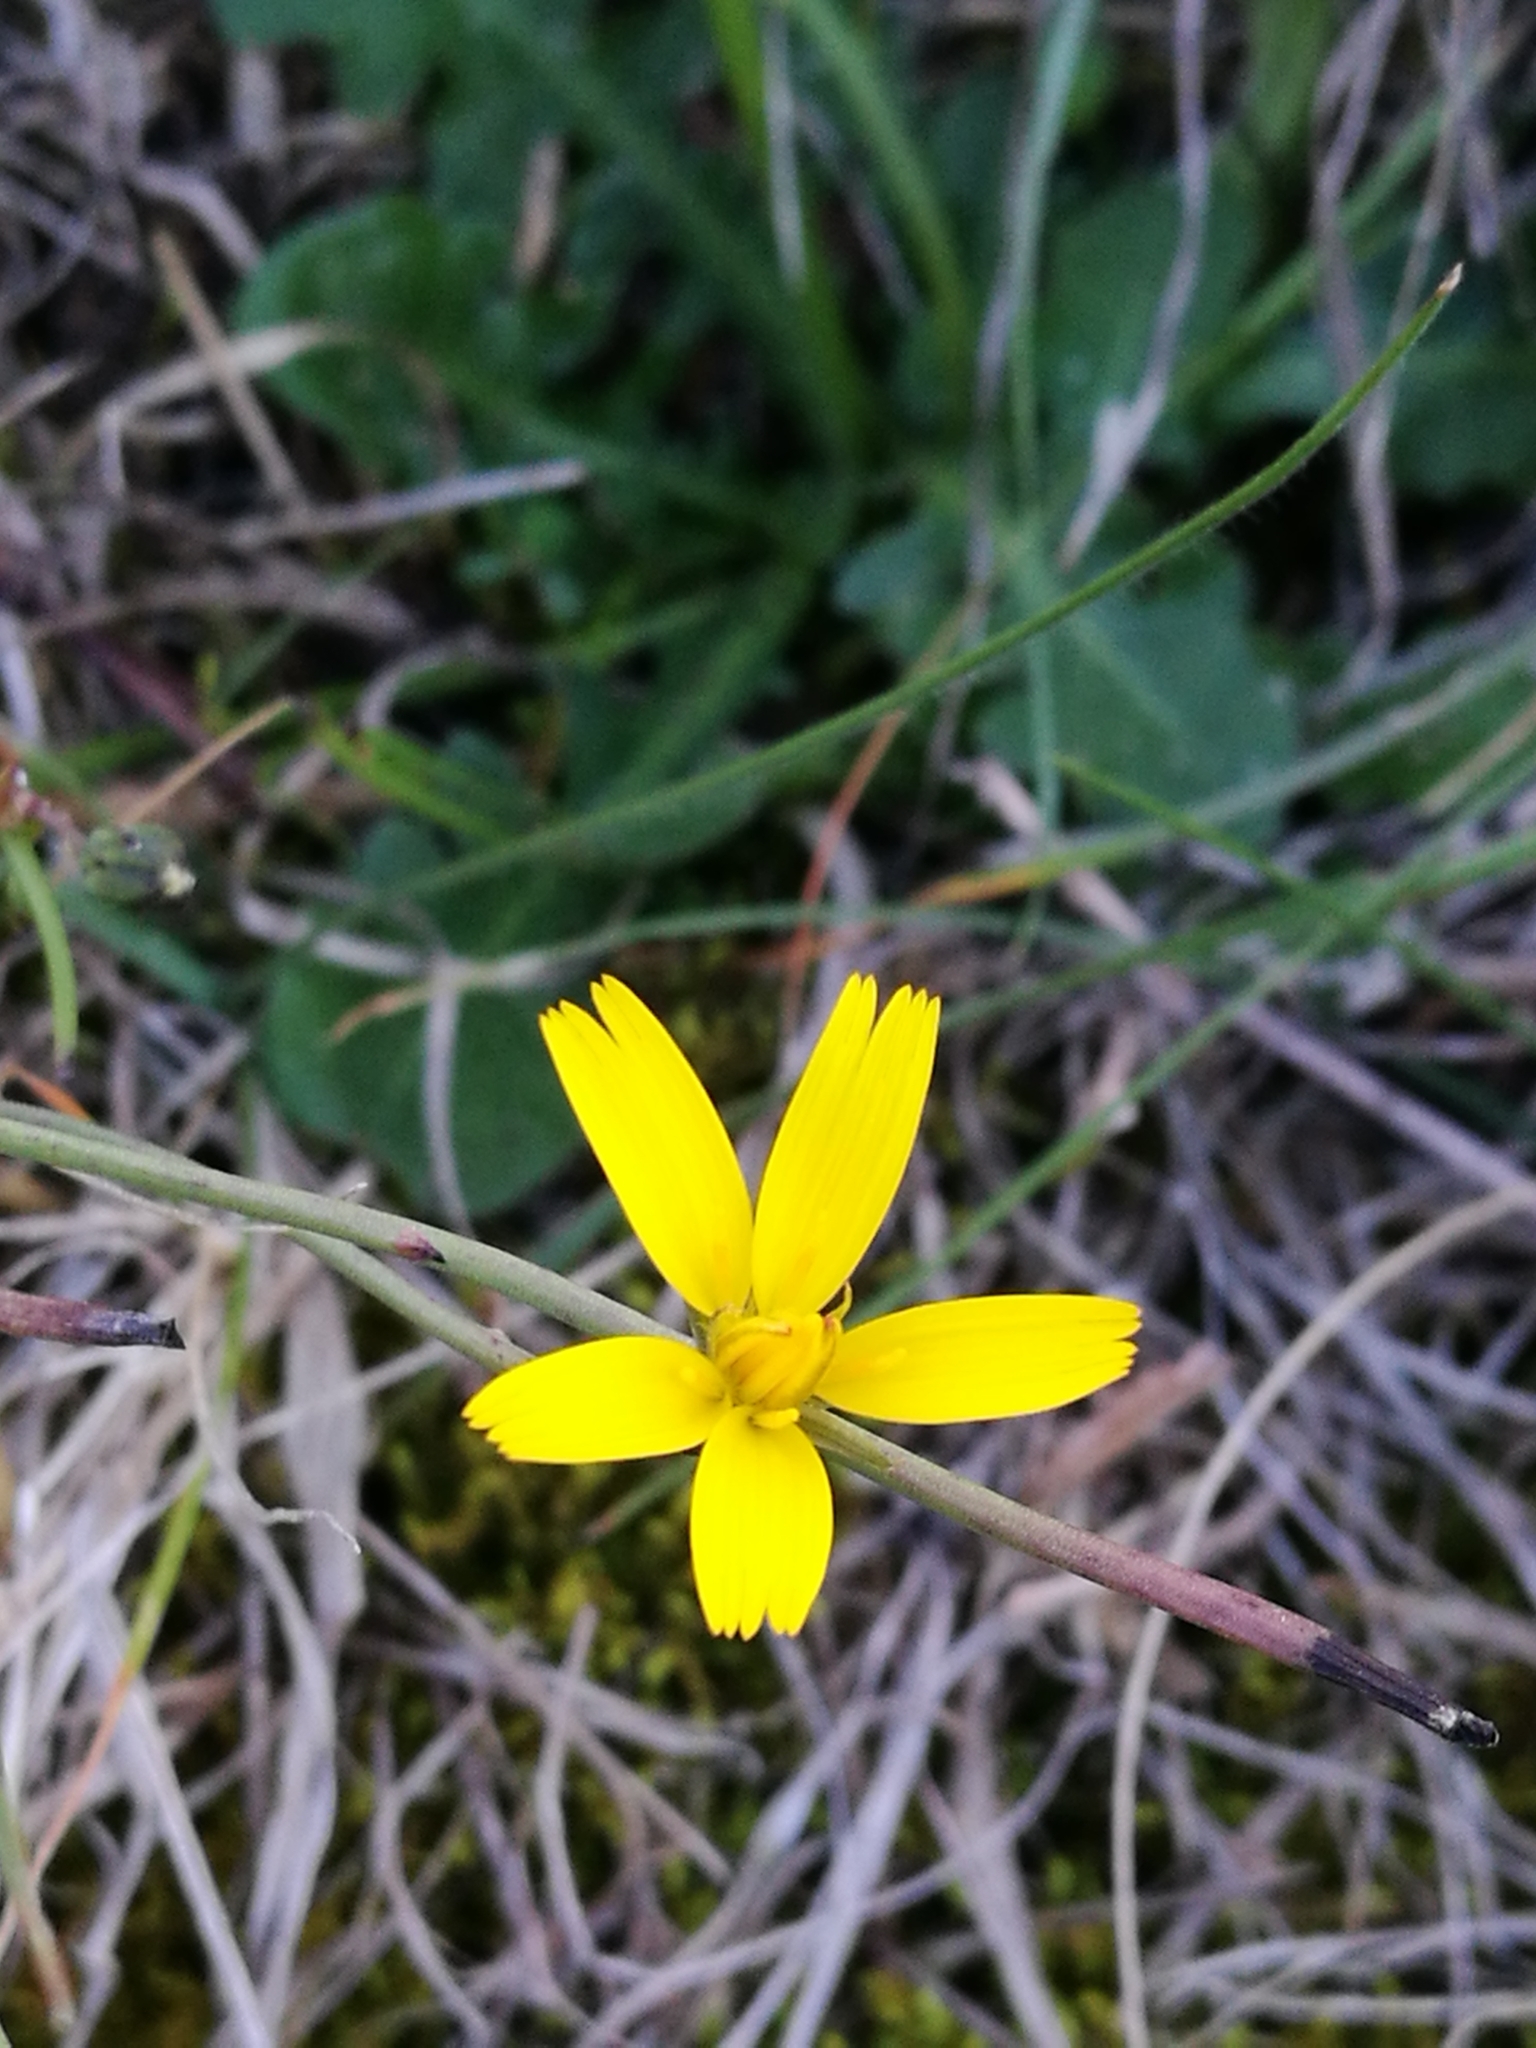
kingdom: Plantae
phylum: Tracheophyta
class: Magnoliopsida
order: Asterales
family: Asteraceae
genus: Hypochaeris
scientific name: Hypochaeris radicata
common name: Flatweed
